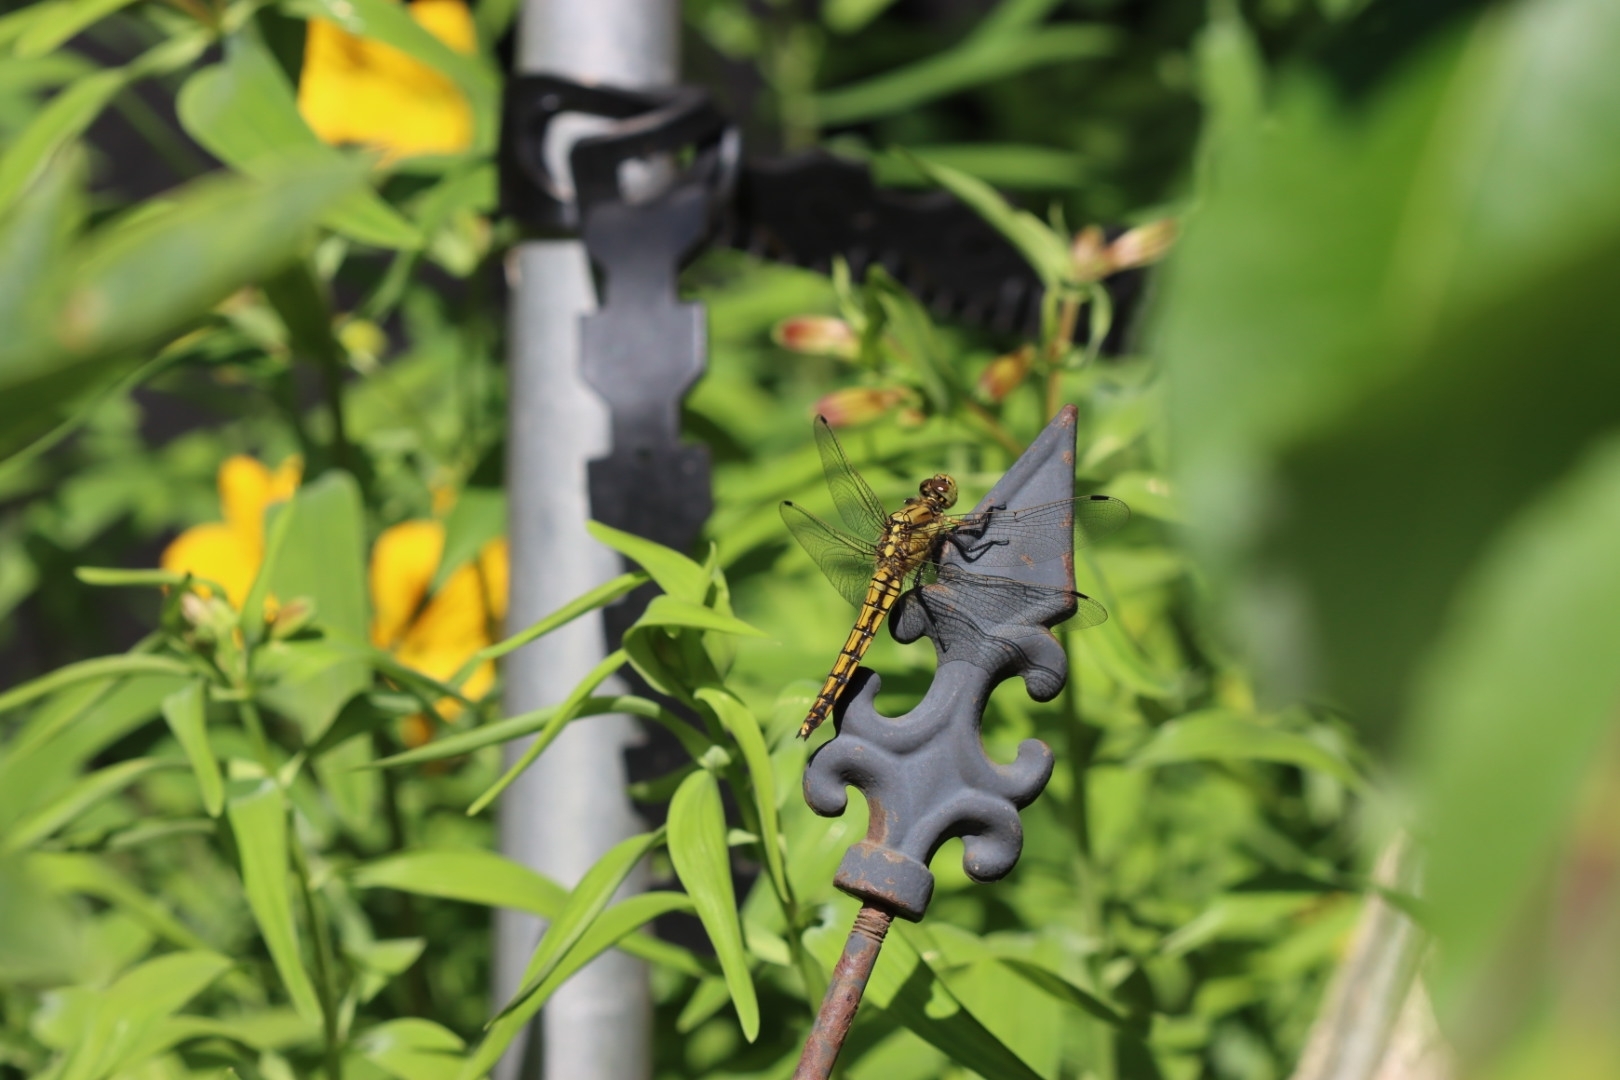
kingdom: Animalia
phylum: Arthropoda
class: Insecta
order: Odonata
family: Libellulidae
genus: Orthetrum
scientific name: Orthetrum cancellatum
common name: Black-tailed skimmer
